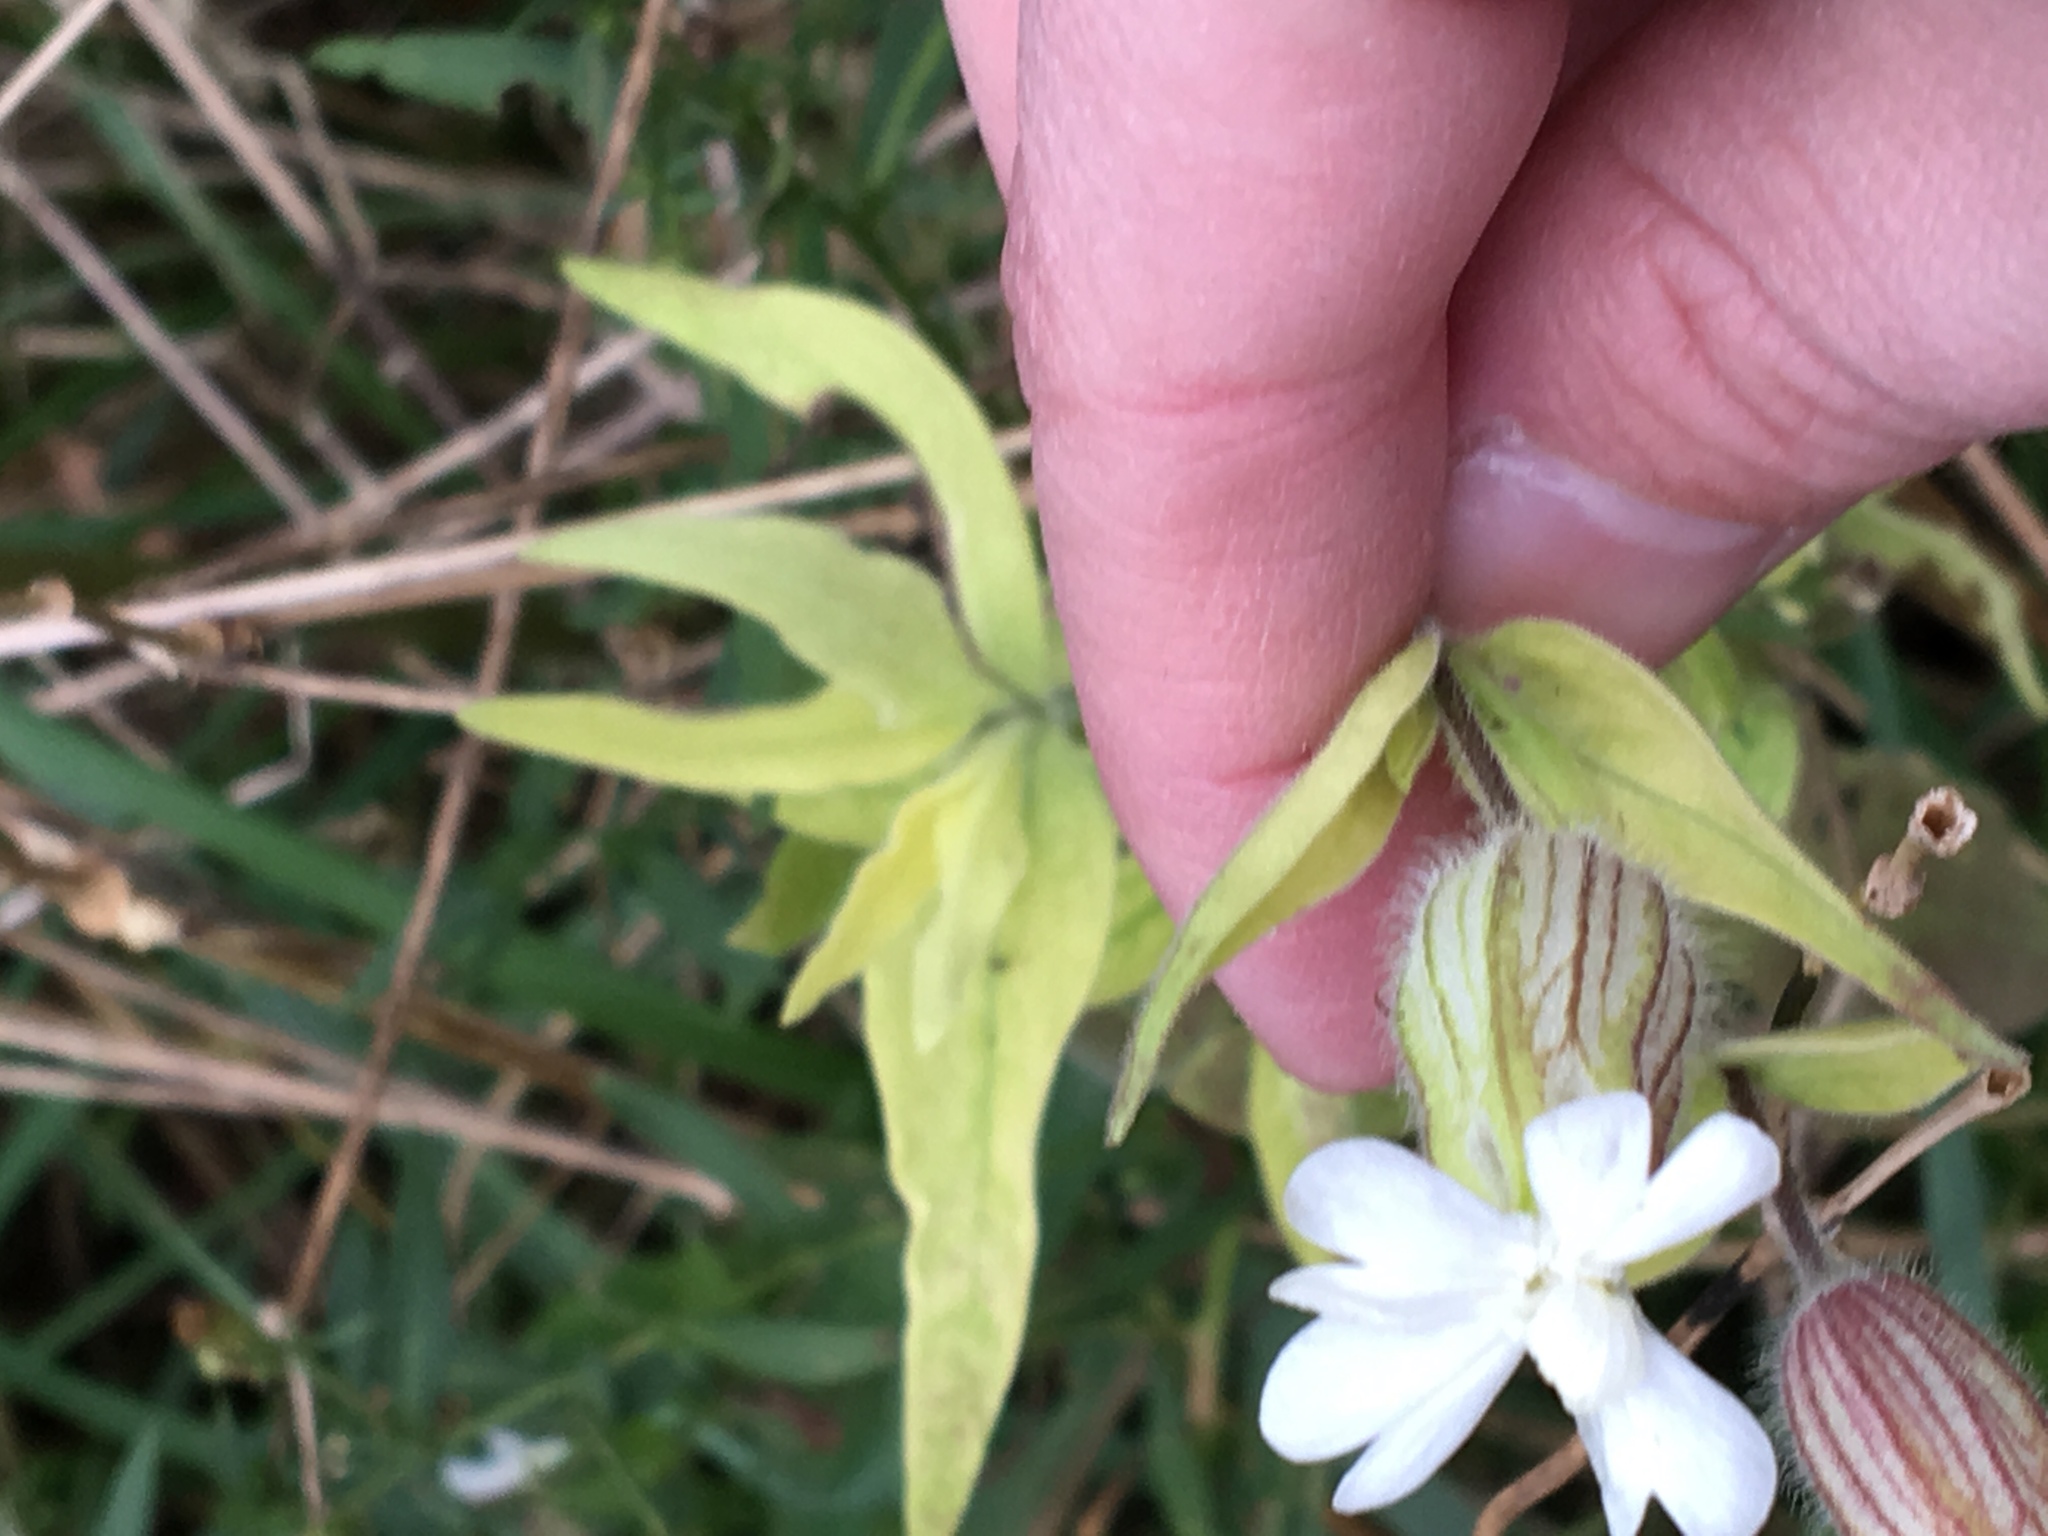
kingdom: Plantae
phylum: Tracheophyta
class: Magnoliopsida
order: Caryophyllales
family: Caryophyllaceae
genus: Silene
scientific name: Silene latifolia
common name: White campion
